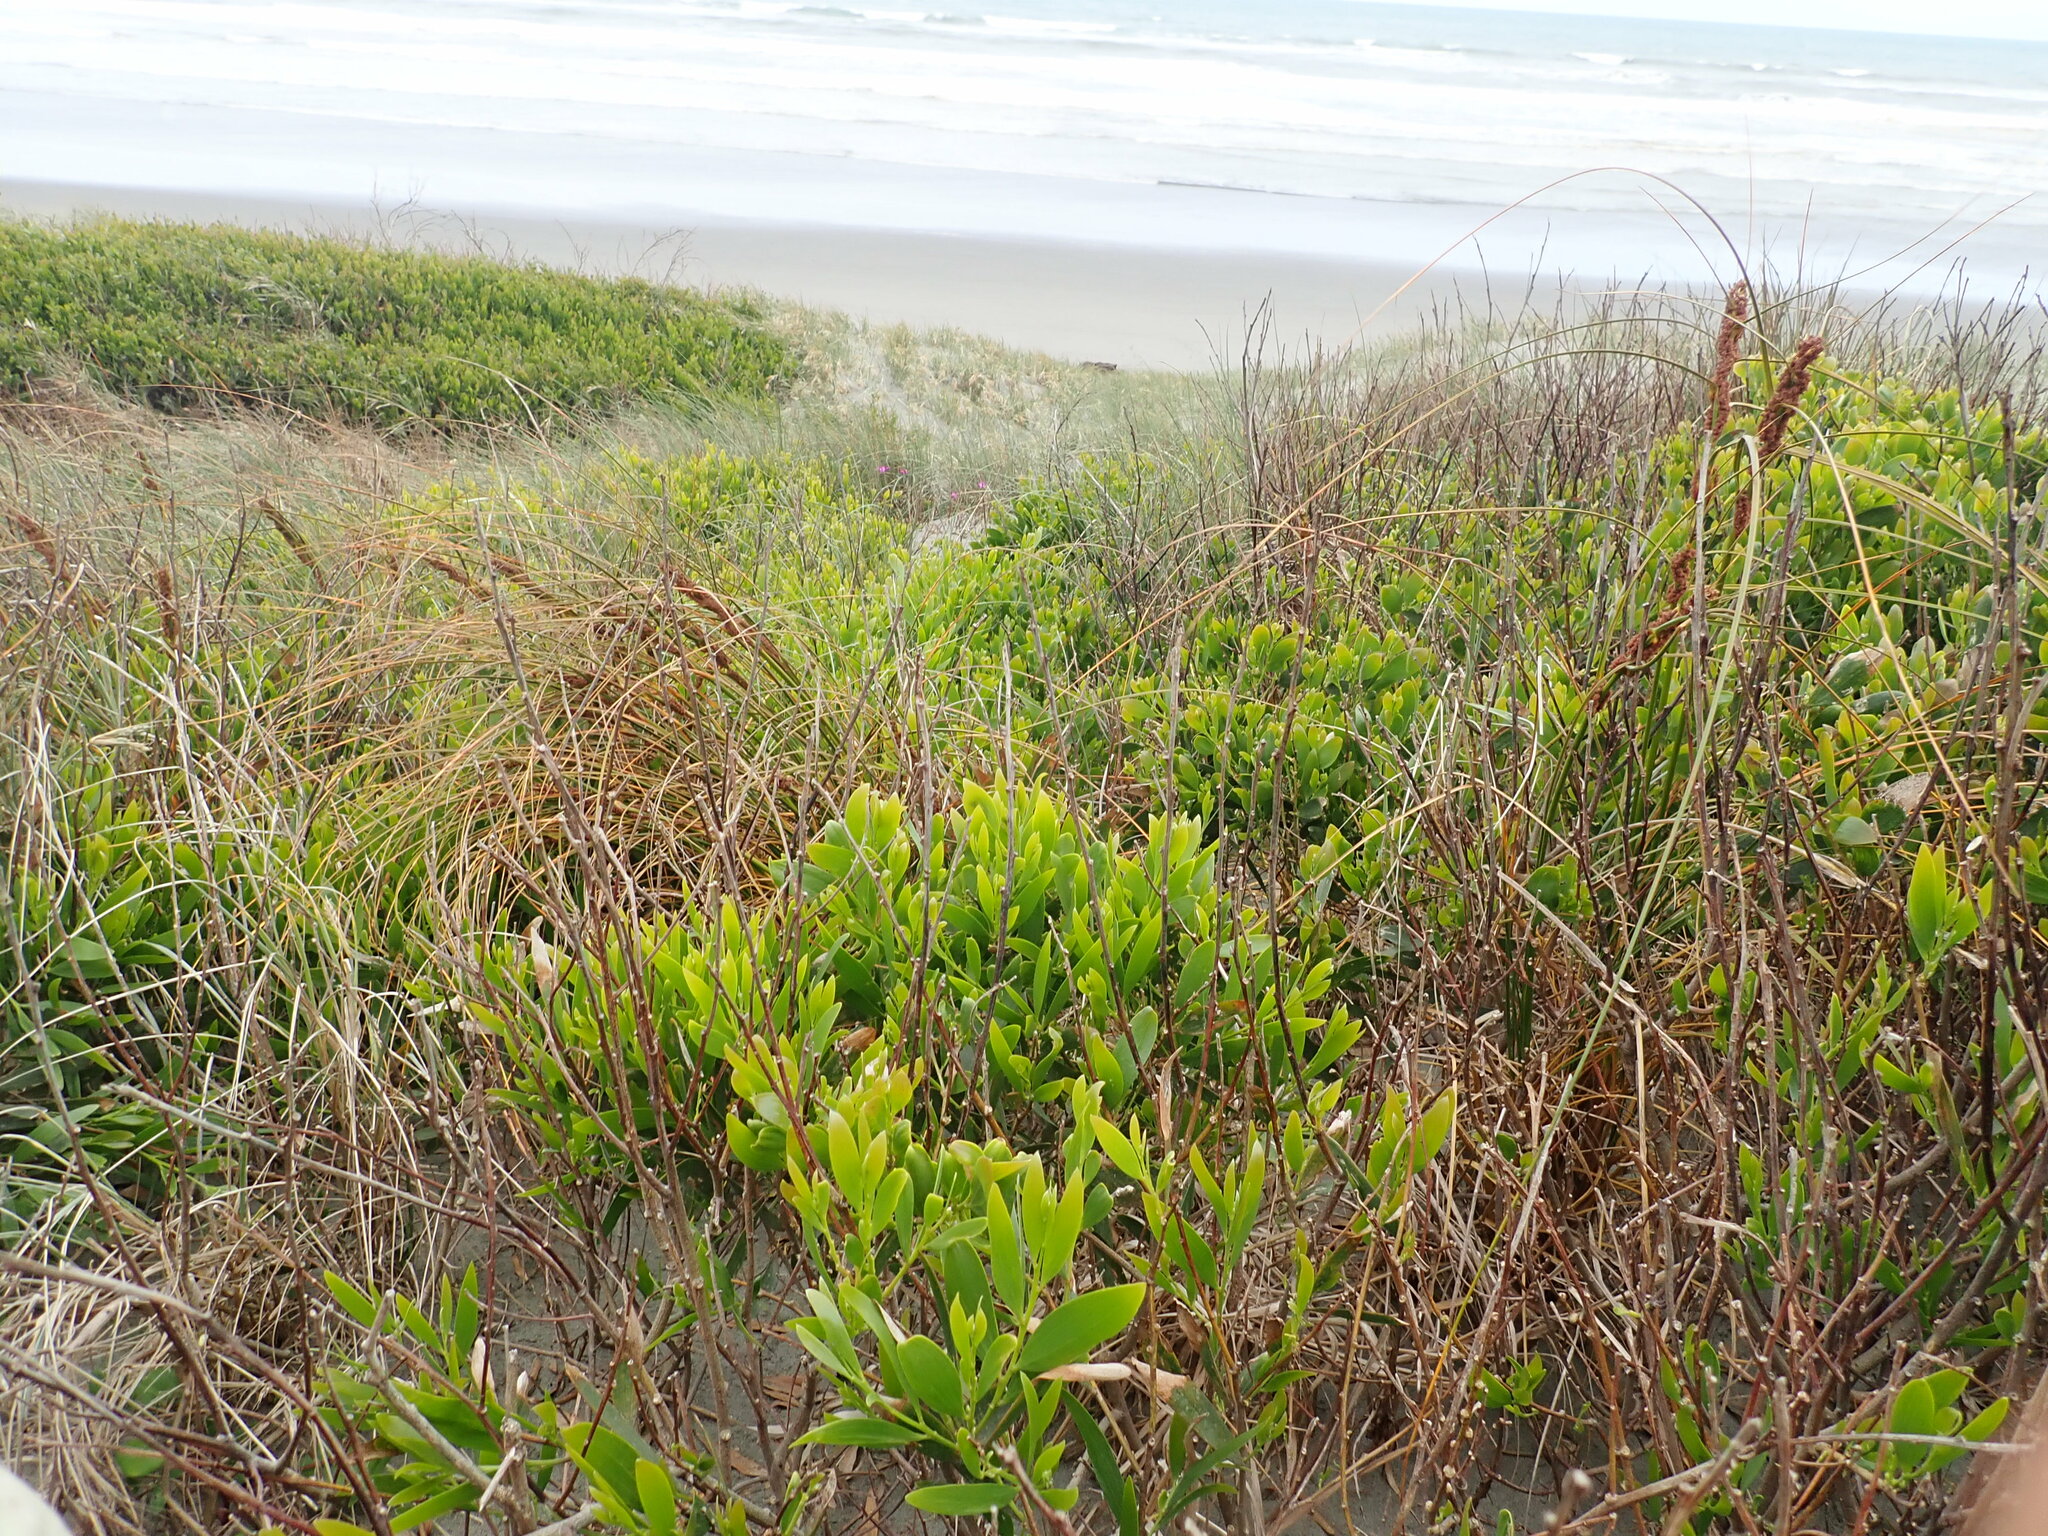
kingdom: Plantae
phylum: Tracheophyta
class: Liliopsida
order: Poales
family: Cyperaceae
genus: Ficinia
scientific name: Ficinia spiralis
